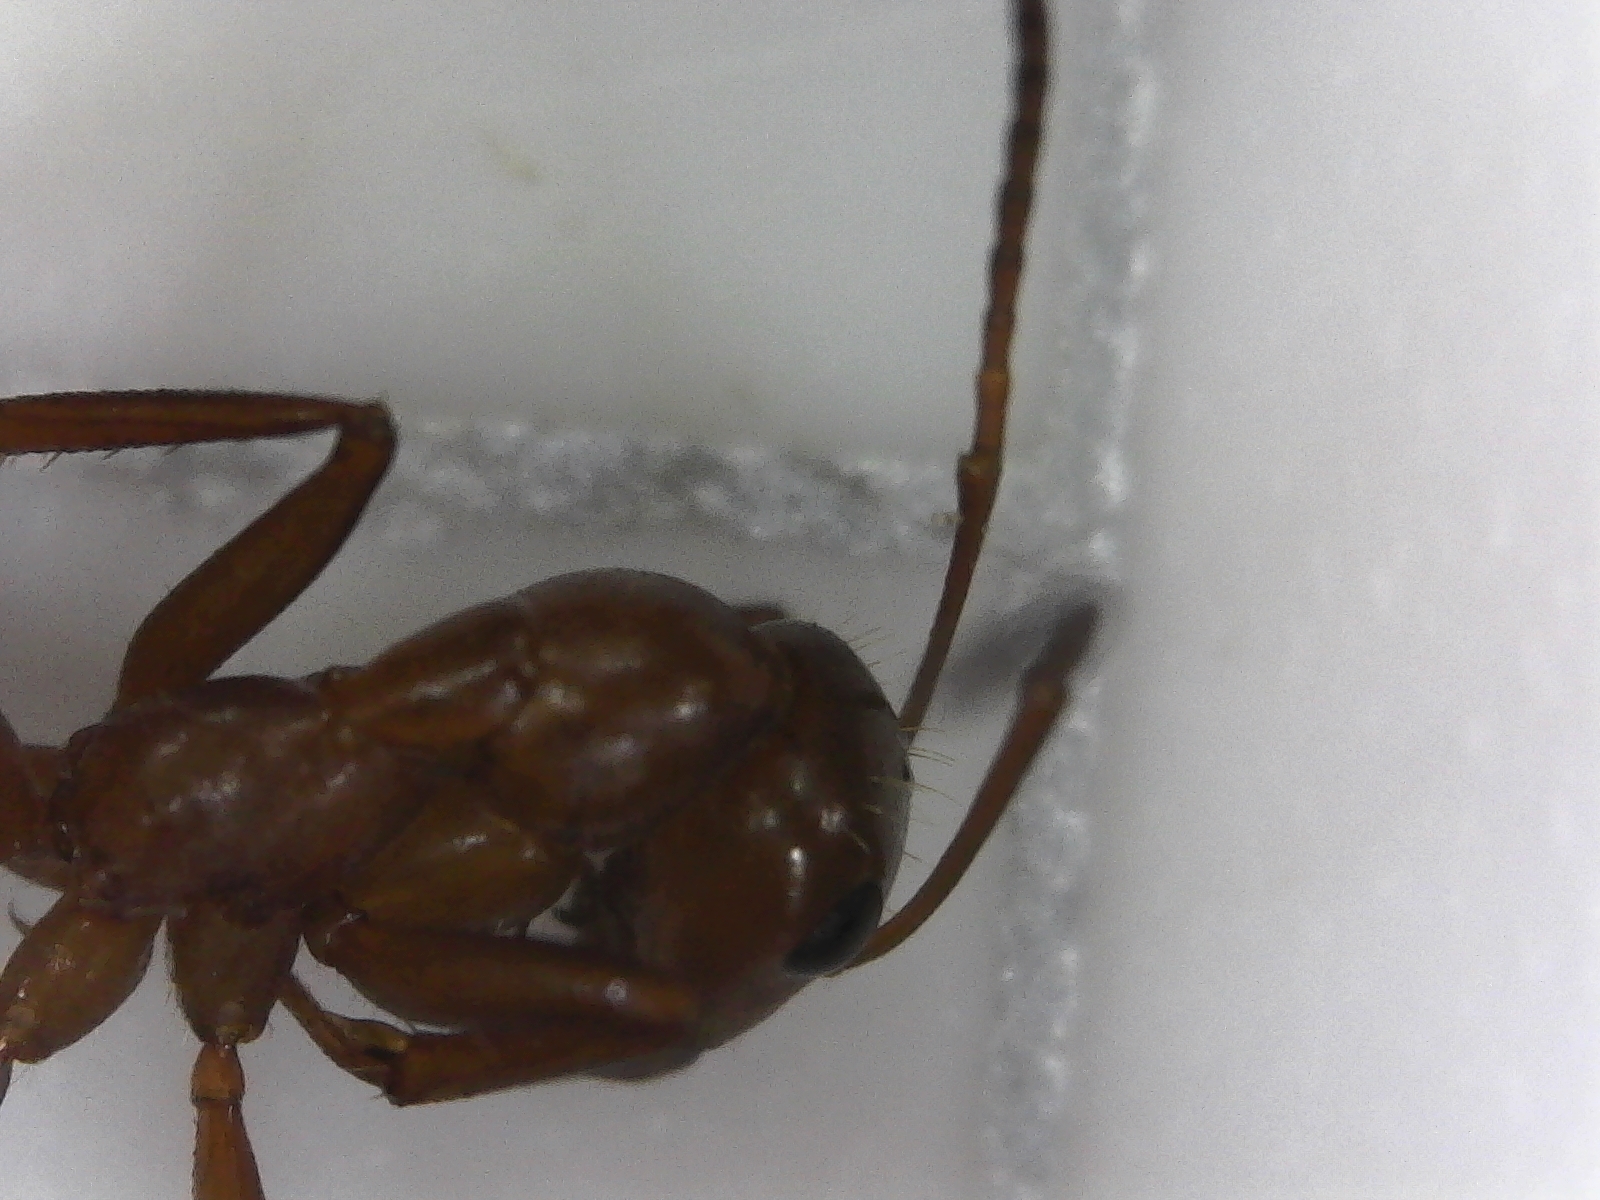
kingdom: Animalia
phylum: Arthropoda
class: Insecta
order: Hymenoptera
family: Formicidae
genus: Formica
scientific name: Formica pallidefulva
